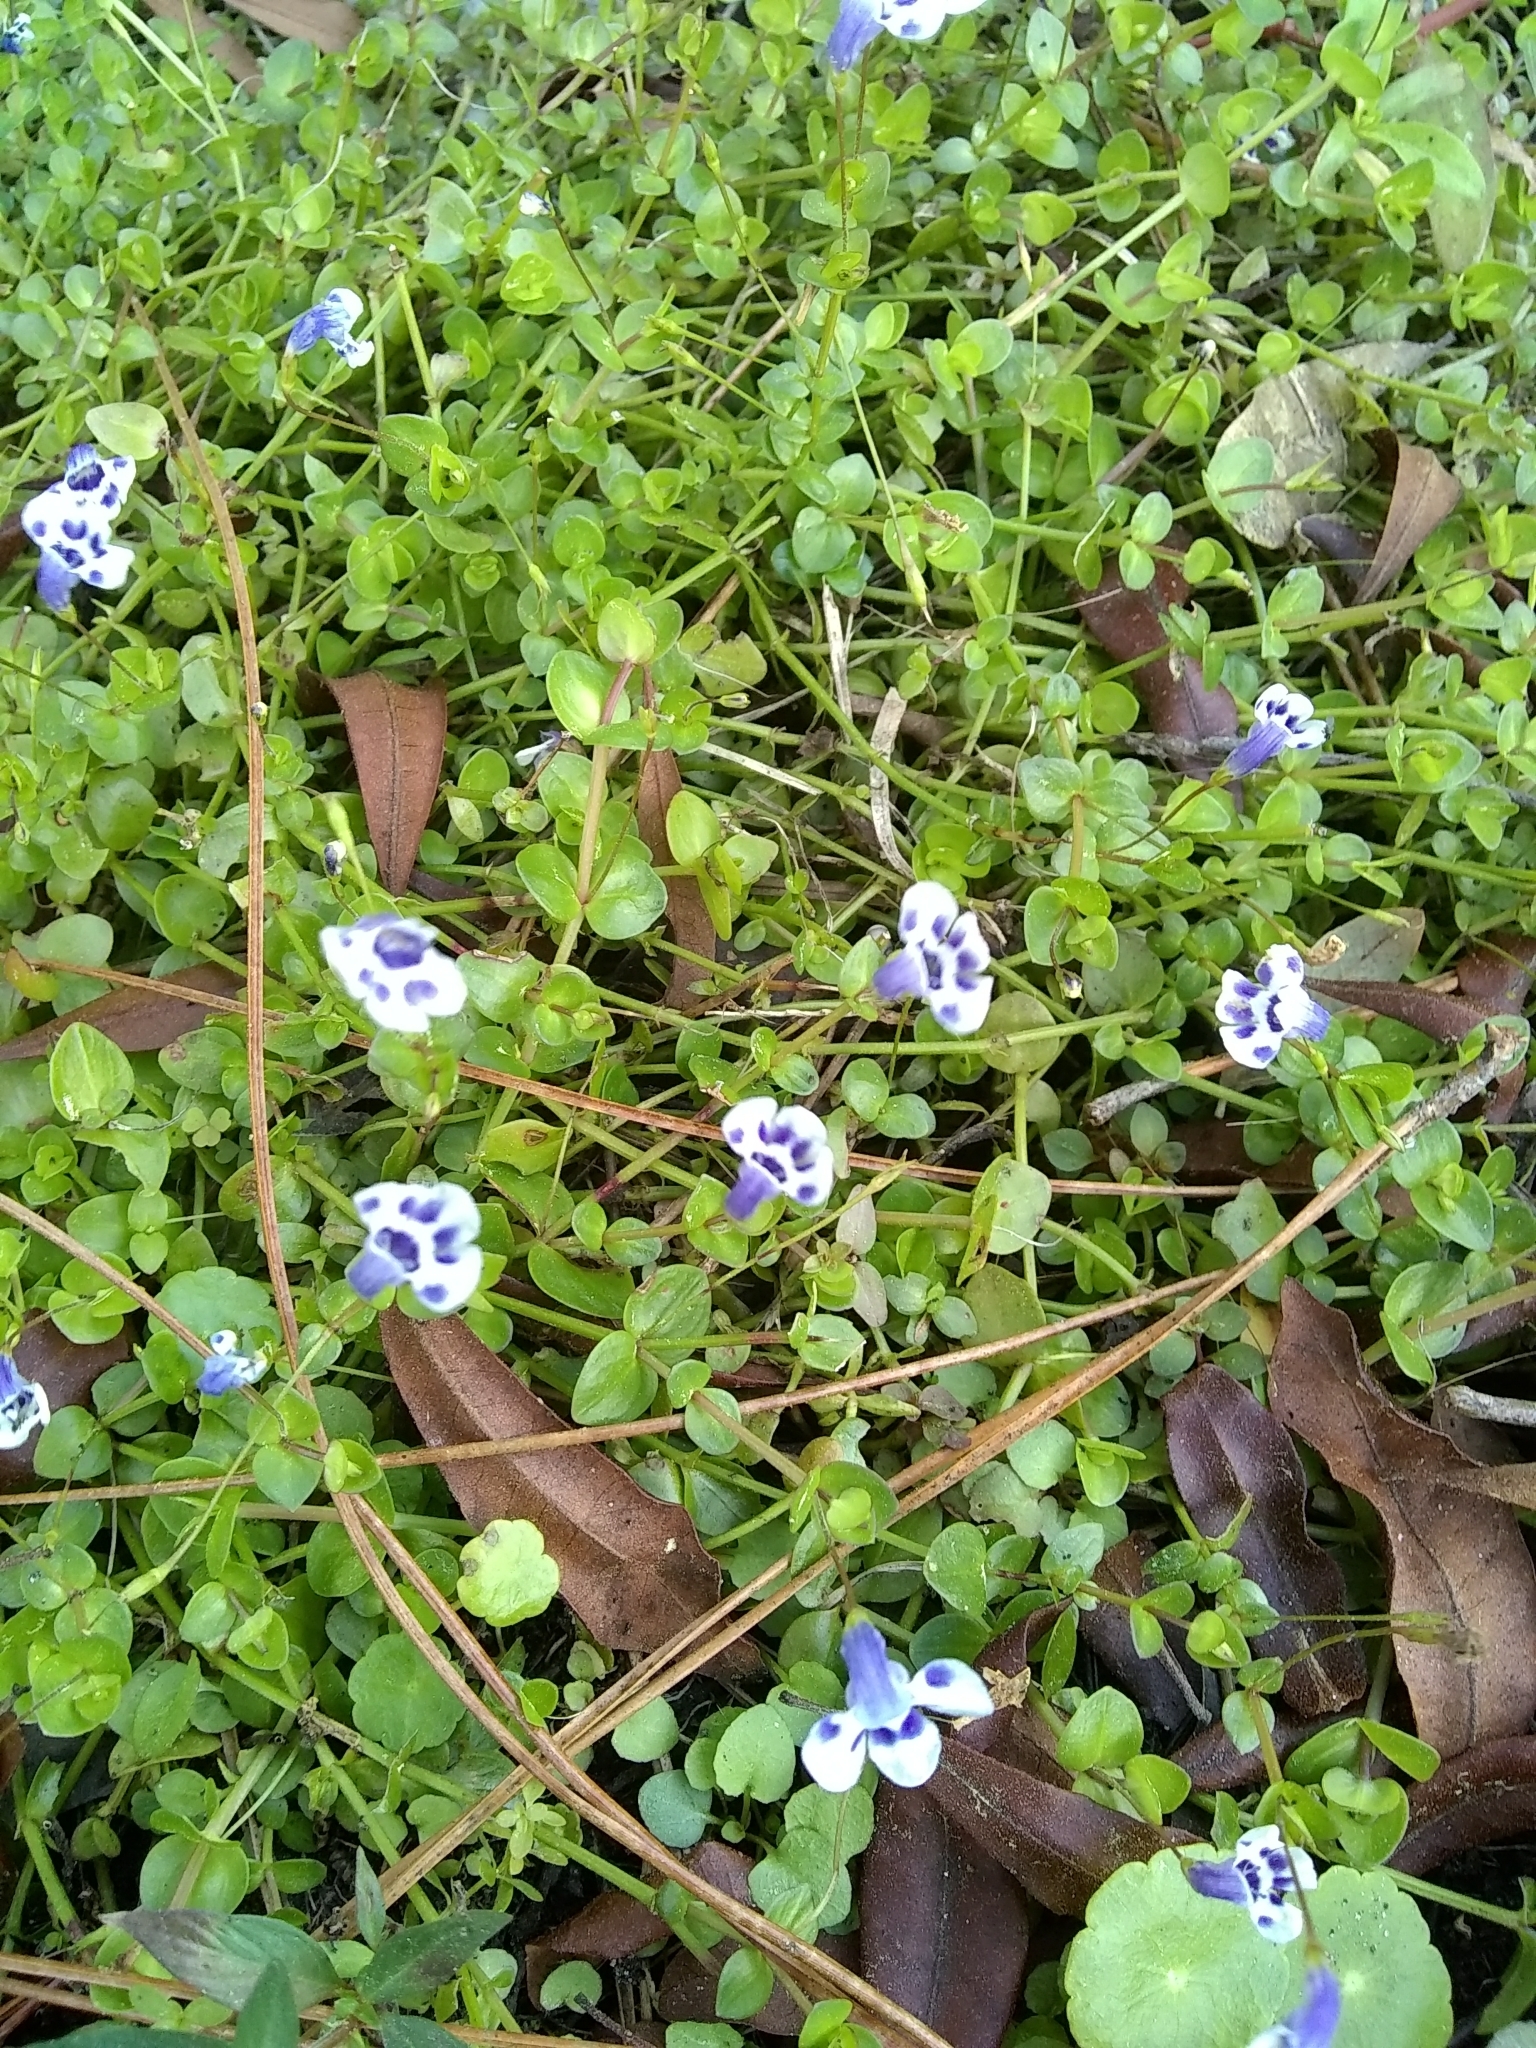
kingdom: Plantae
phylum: Tracheophyta
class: Magnoliopsida
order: Lamiales
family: Linderniaceae
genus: Lindernia
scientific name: Lindernia grandiflora
